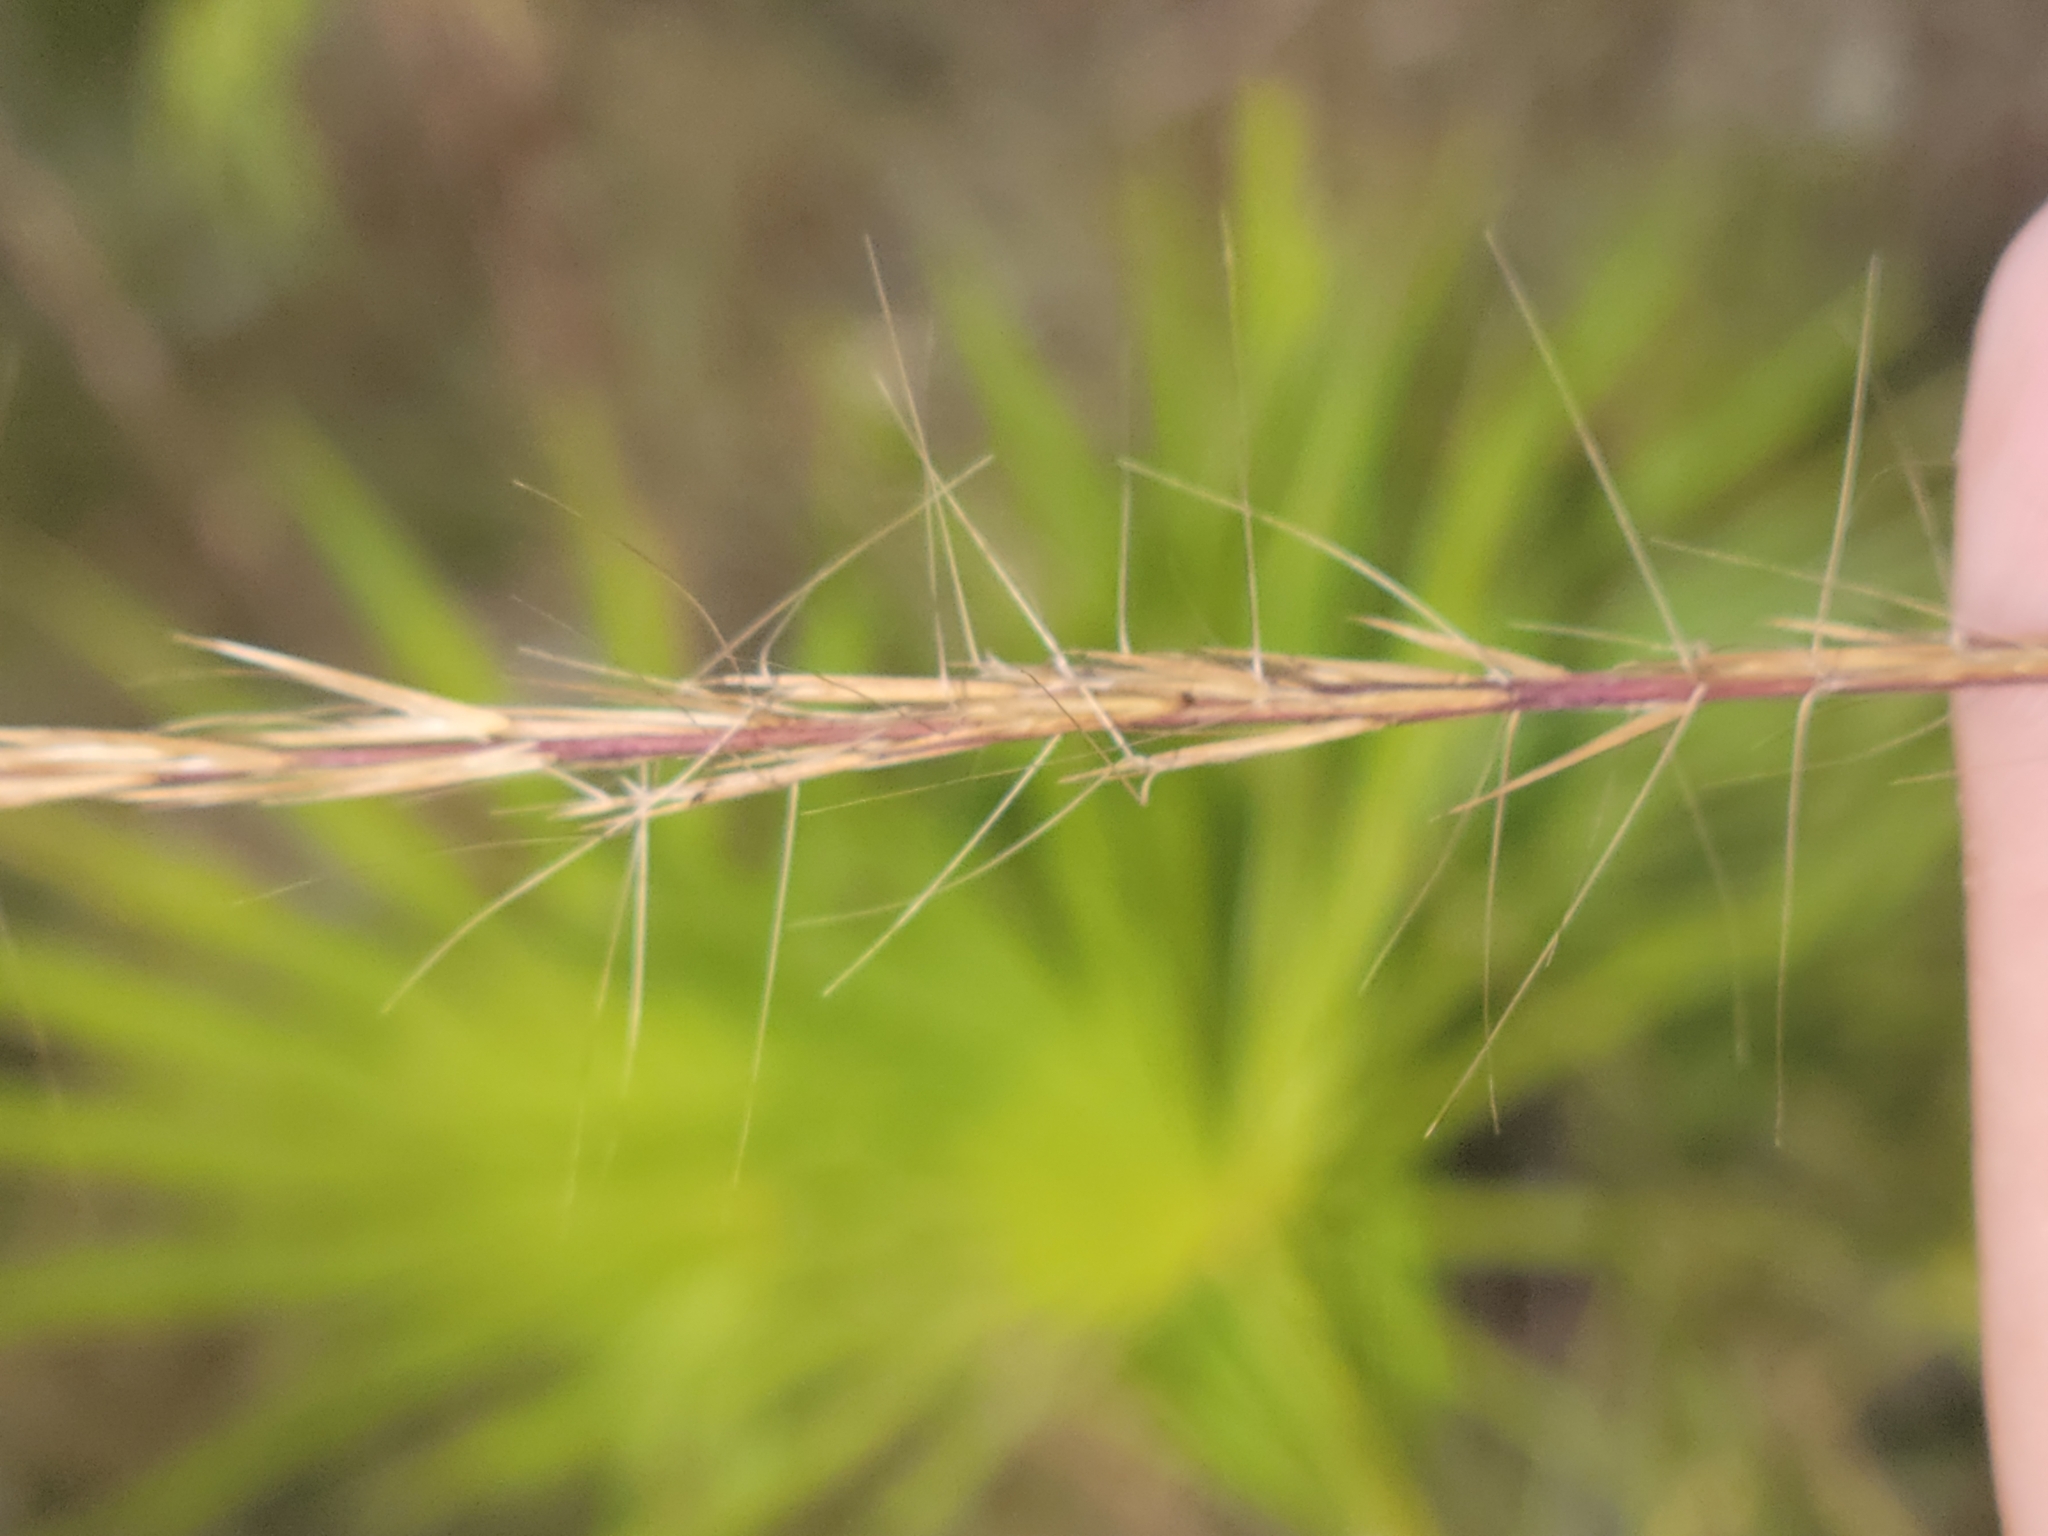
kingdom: Plantae
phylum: Tracheophyta
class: Liliopsida
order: Poales
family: Poaceae
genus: Aristida
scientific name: Aristida condensata
